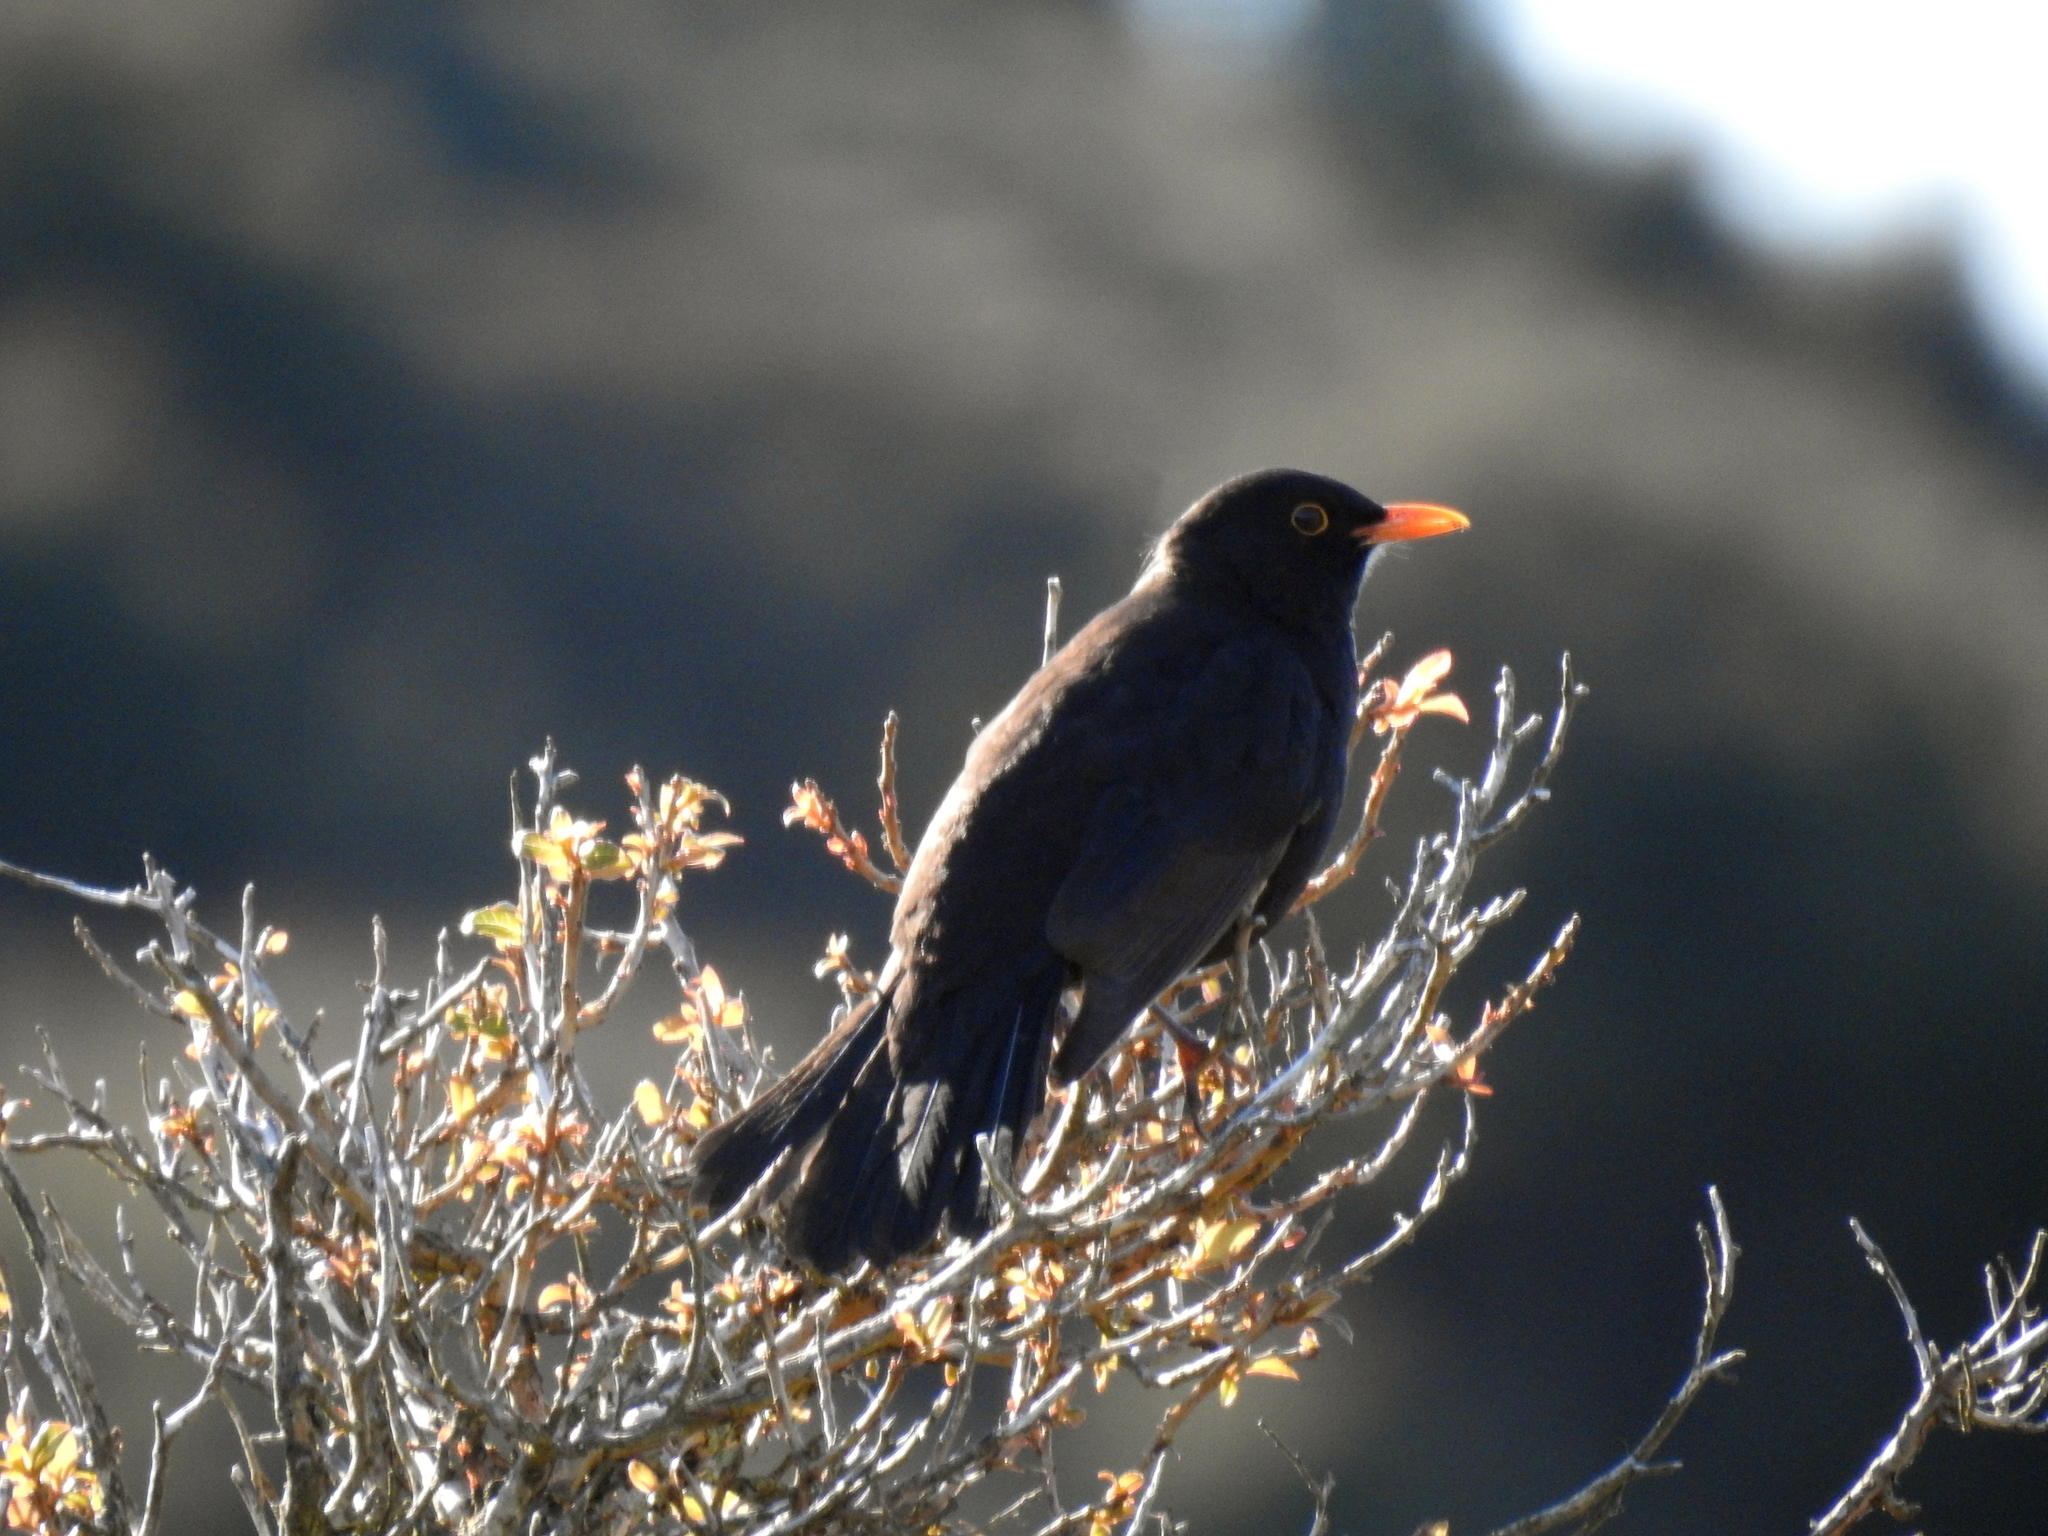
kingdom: Animalia
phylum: Chordata
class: Aves
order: Passeriformes
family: Turdidae
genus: Turdus
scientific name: Turdus merula
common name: Common blackbird
